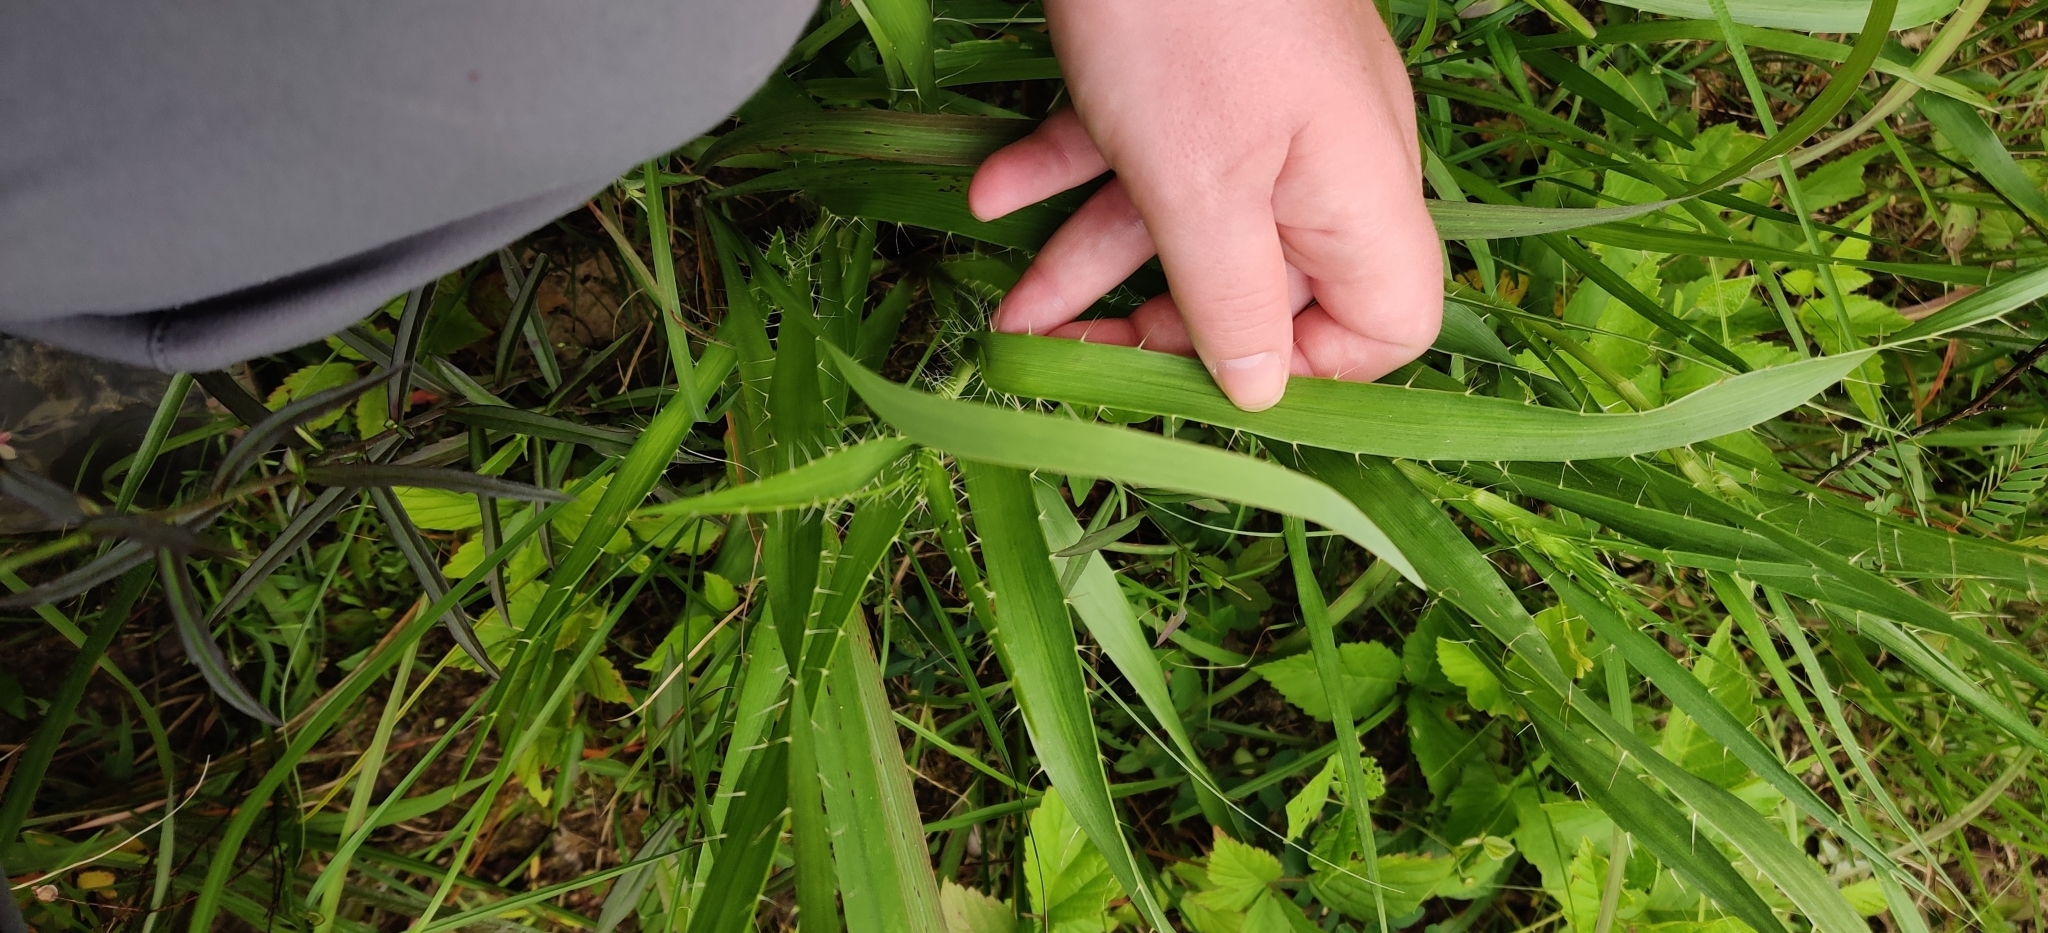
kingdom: Plantae
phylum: Tracheophyta
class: Magnoliopsida
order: Apiales
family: Apiaceae
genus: Eryngium
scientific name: Eryngium yuccifolium
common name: Button eryngo
